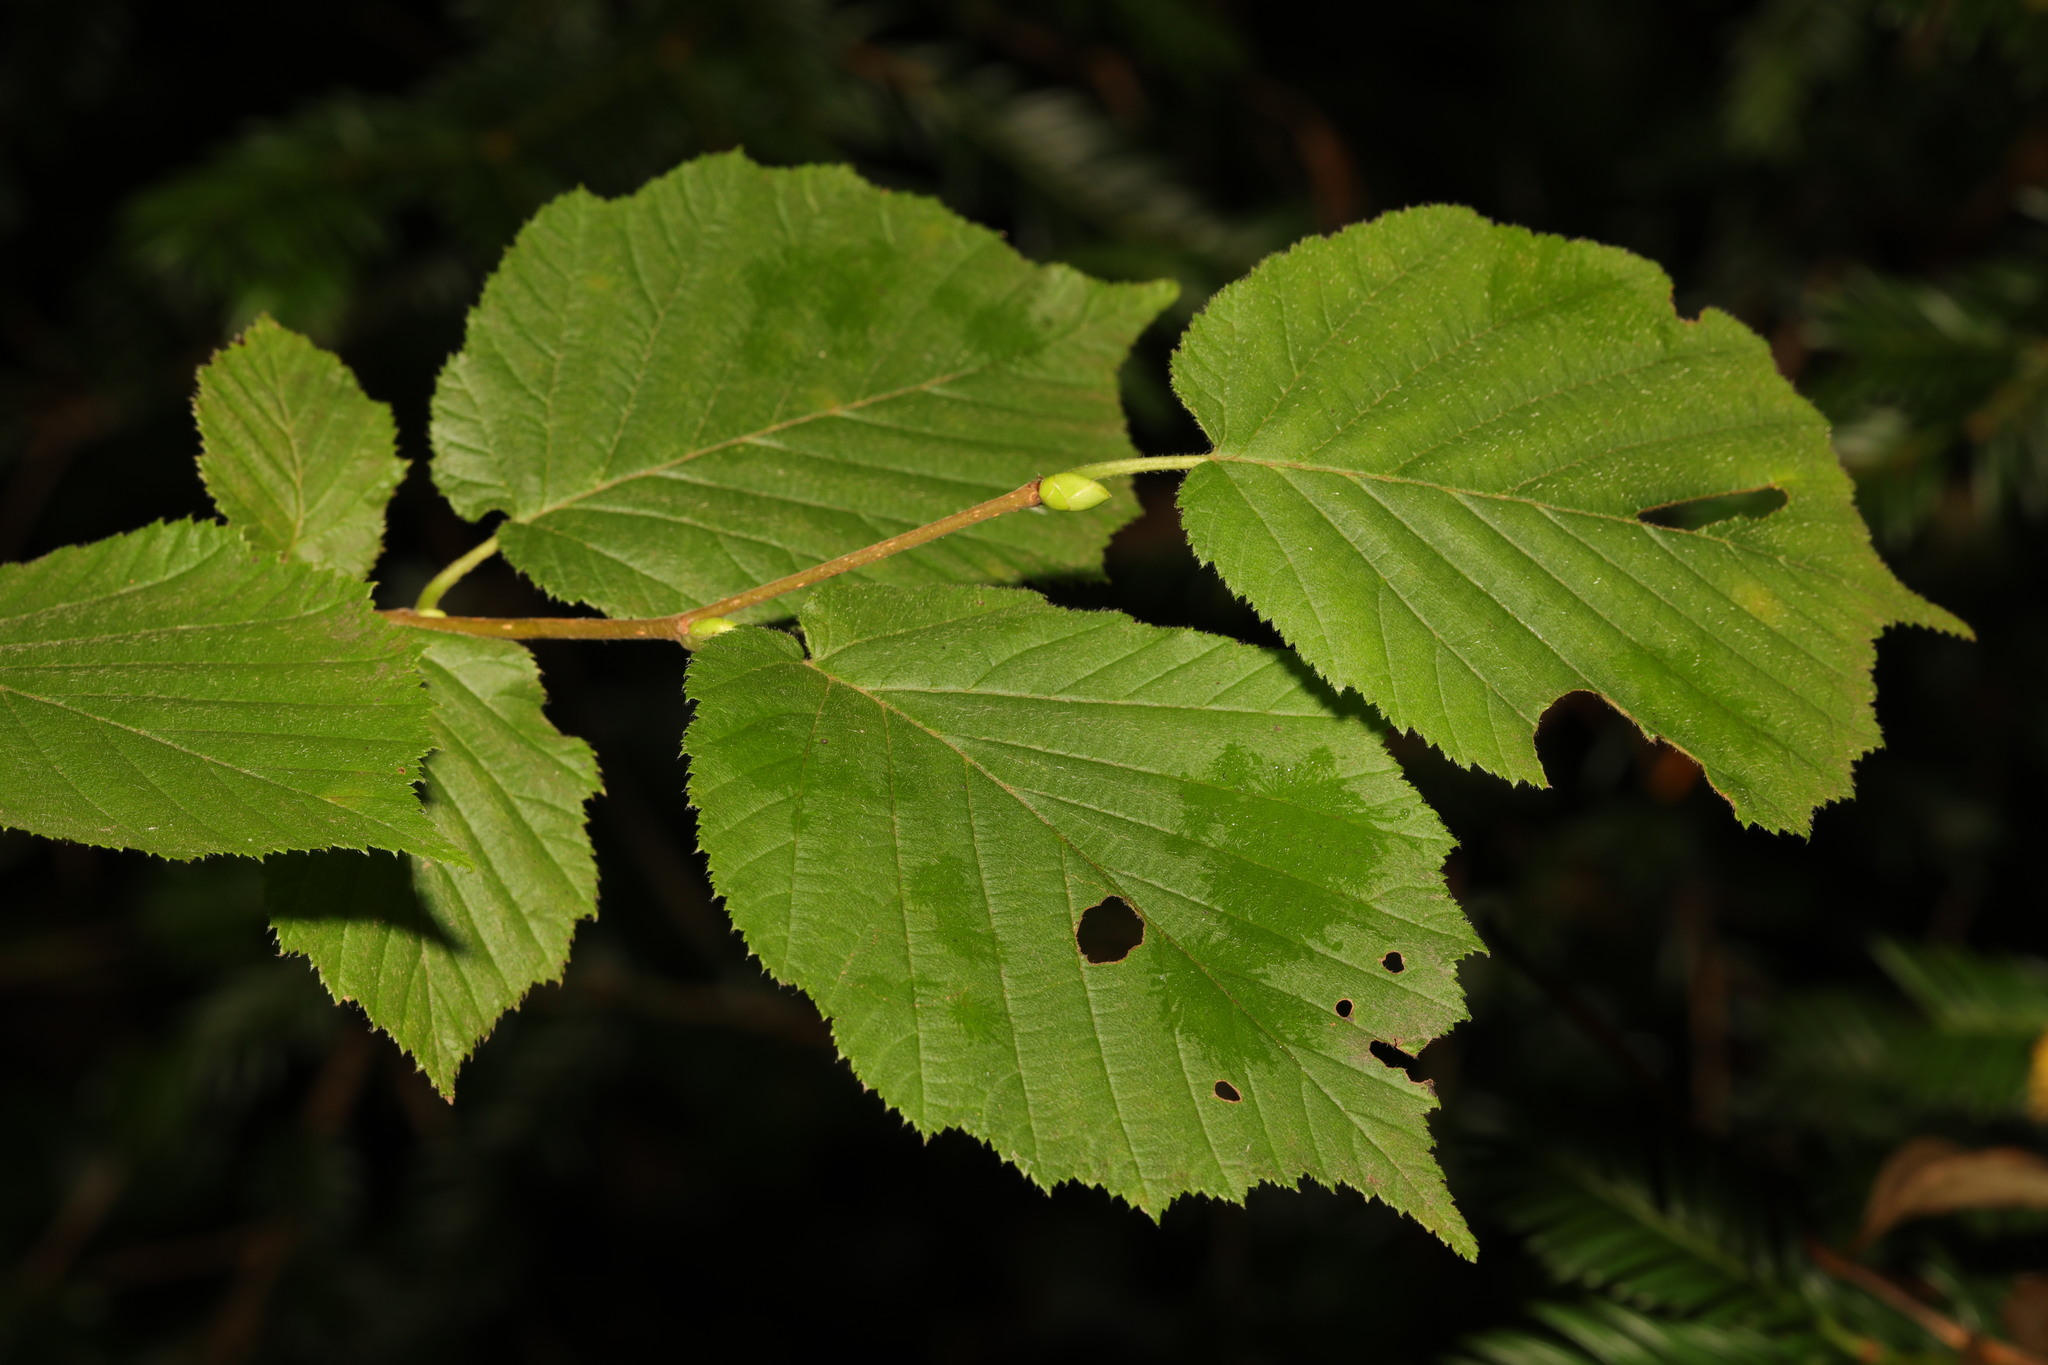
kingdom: Plantae
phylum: Tracheophyta
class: Magnoliopsida
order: Fagales
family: Betulaceae
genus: Corylus
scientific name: Corylus avellana
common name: European hazel
